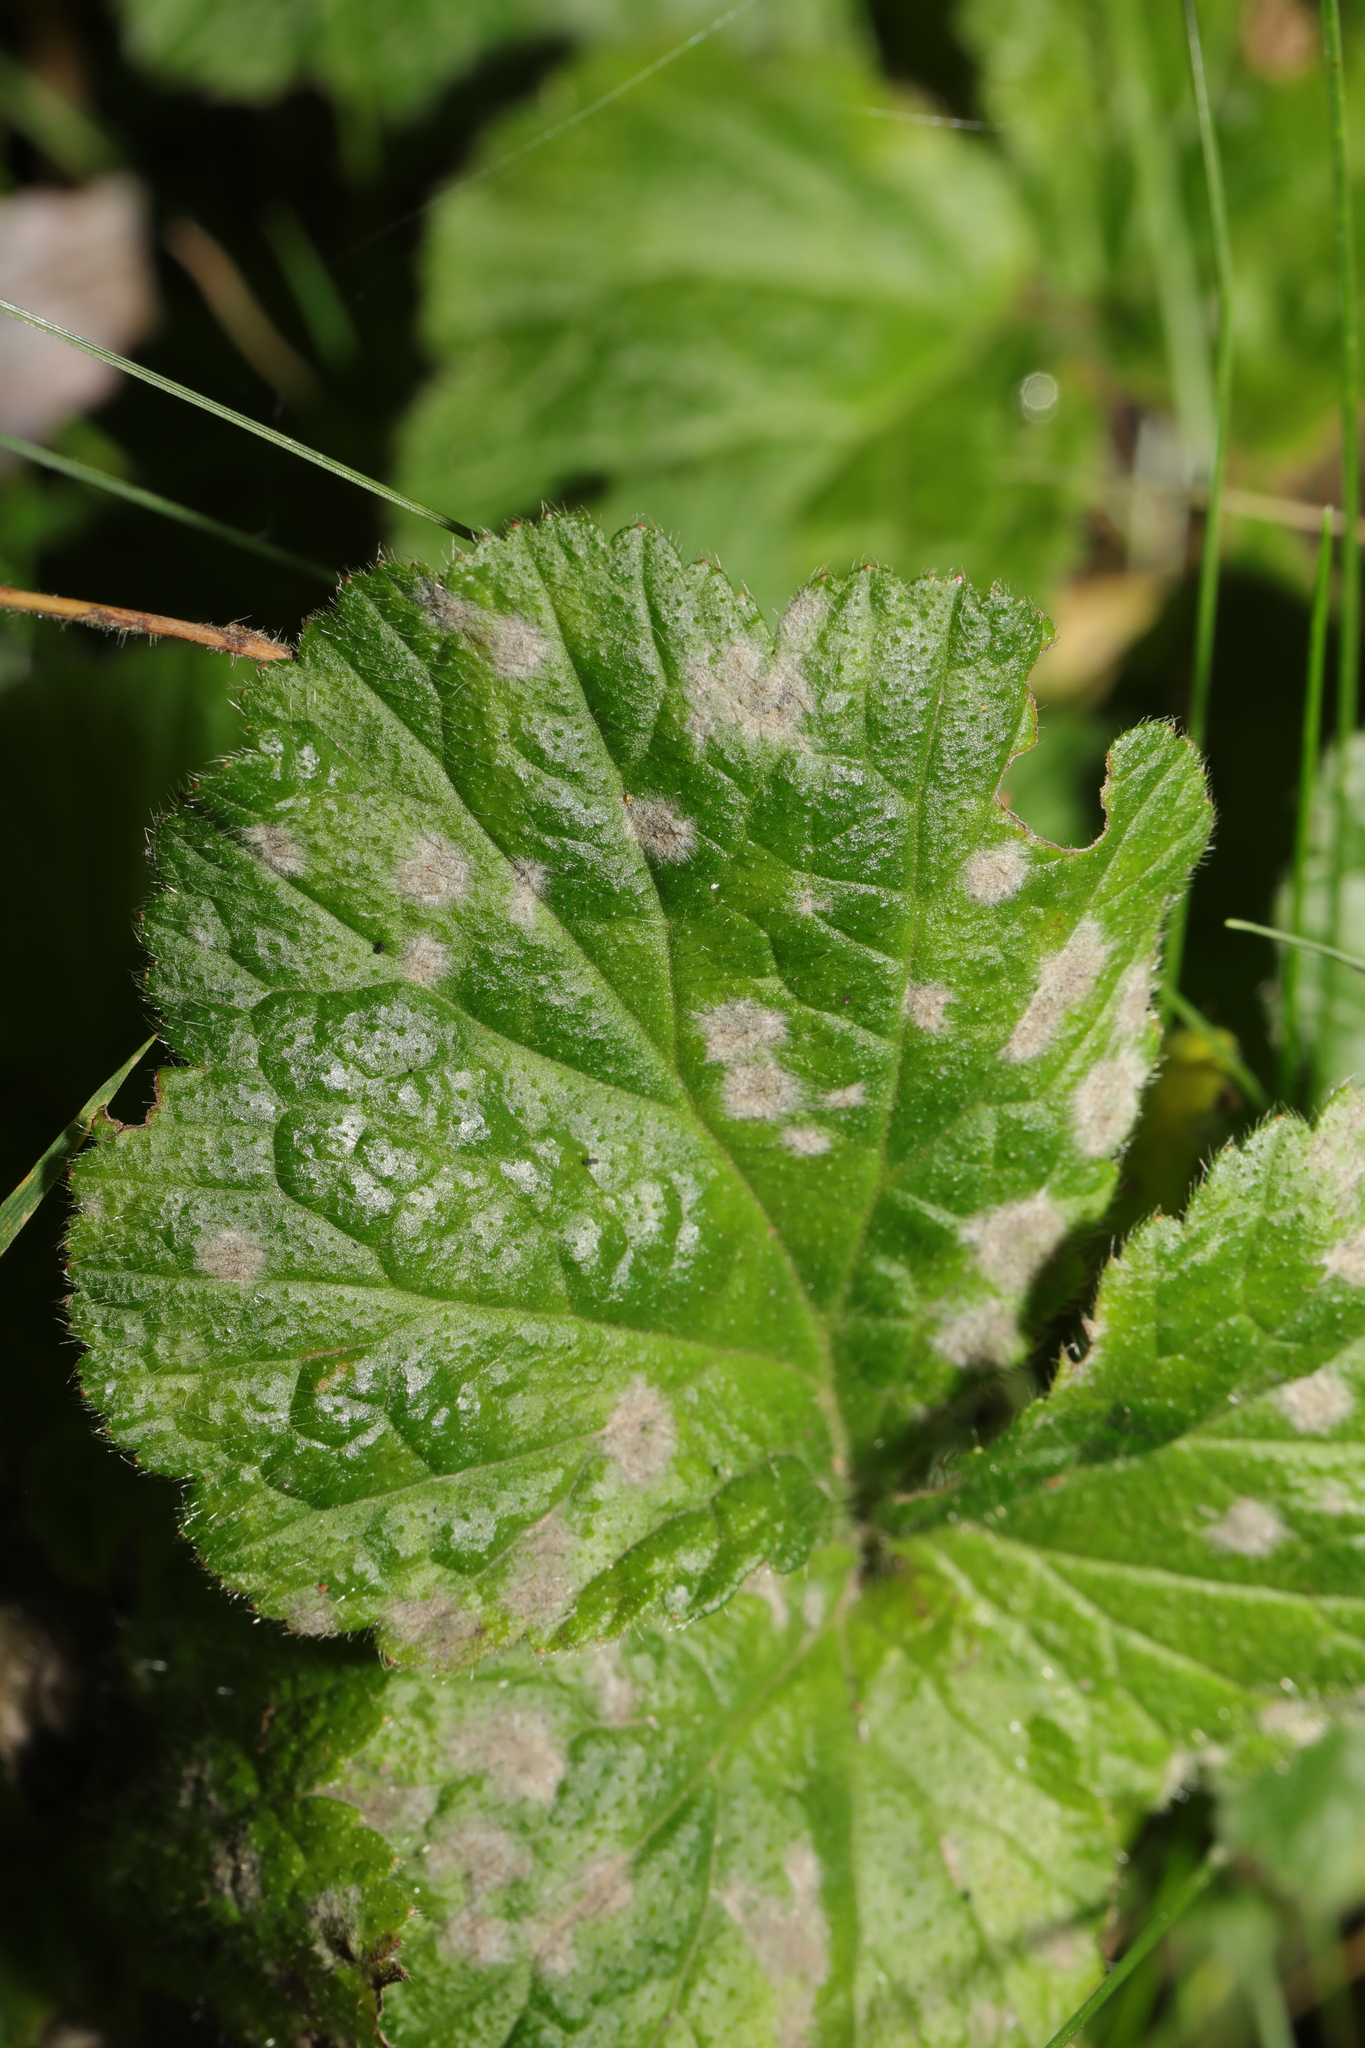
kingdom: Fungi
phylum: Ascomycota
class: Leotiomycetes
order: Helotiales
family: Erysiphaceae
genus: Podosphaera
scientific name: Podosphaera aphanis
